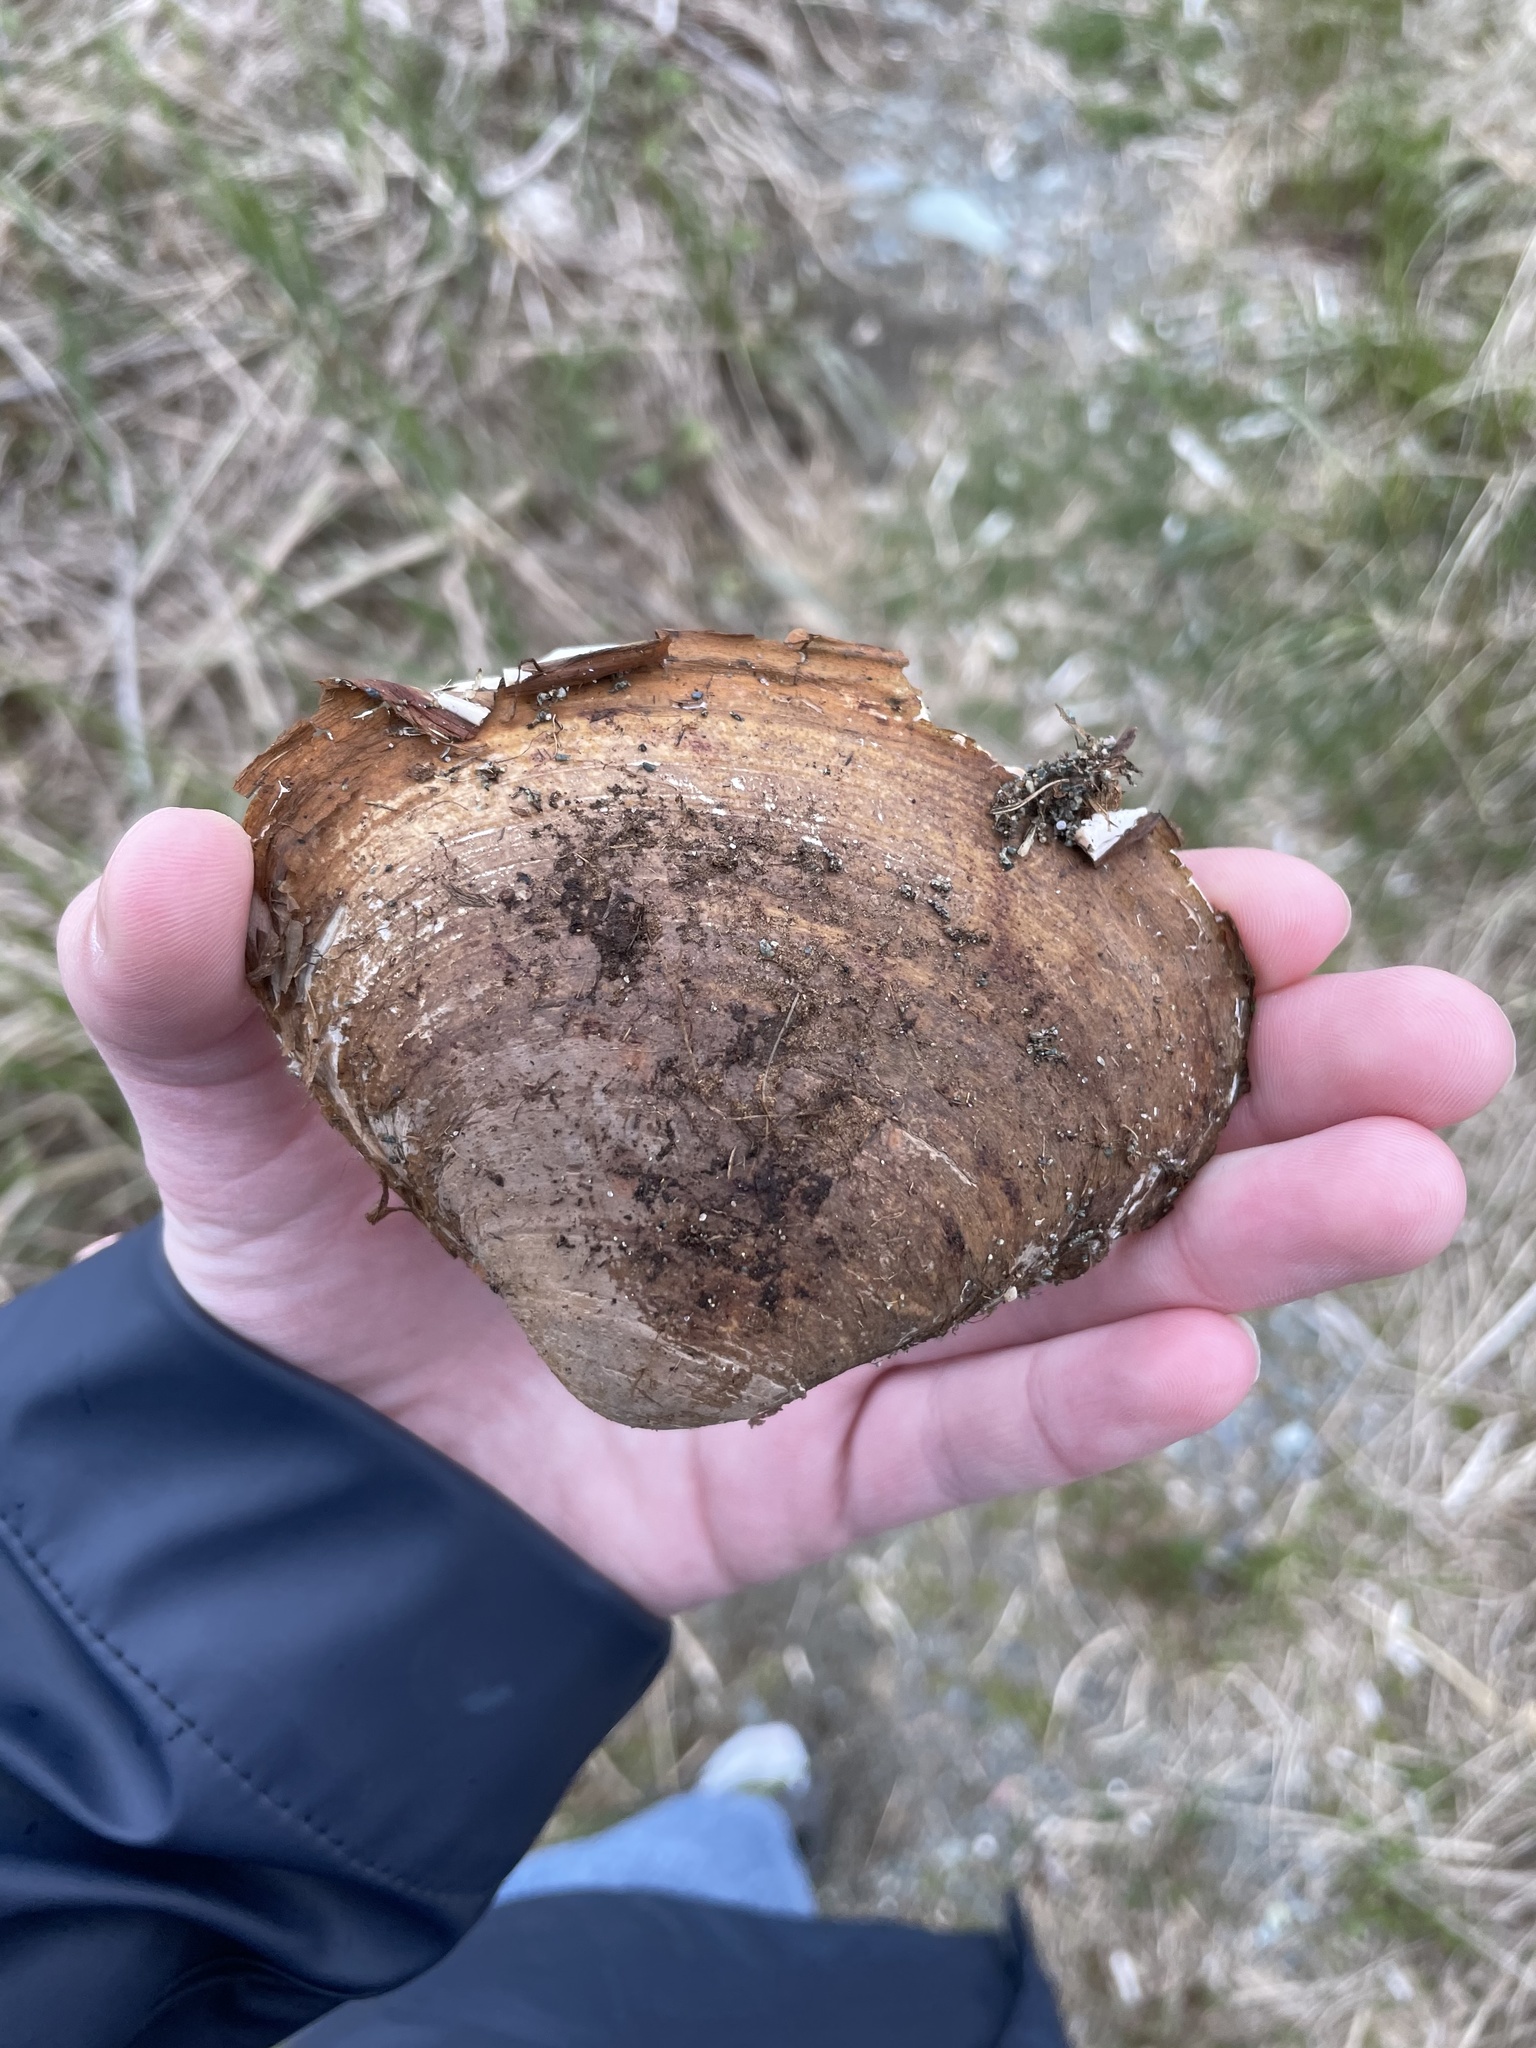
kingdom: Animalia
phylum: Mollusca
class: Bivalvia
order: Venerida
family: Mactridae
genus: Spisula
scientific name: Spisula solidissima
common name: Atlantic surf clam
